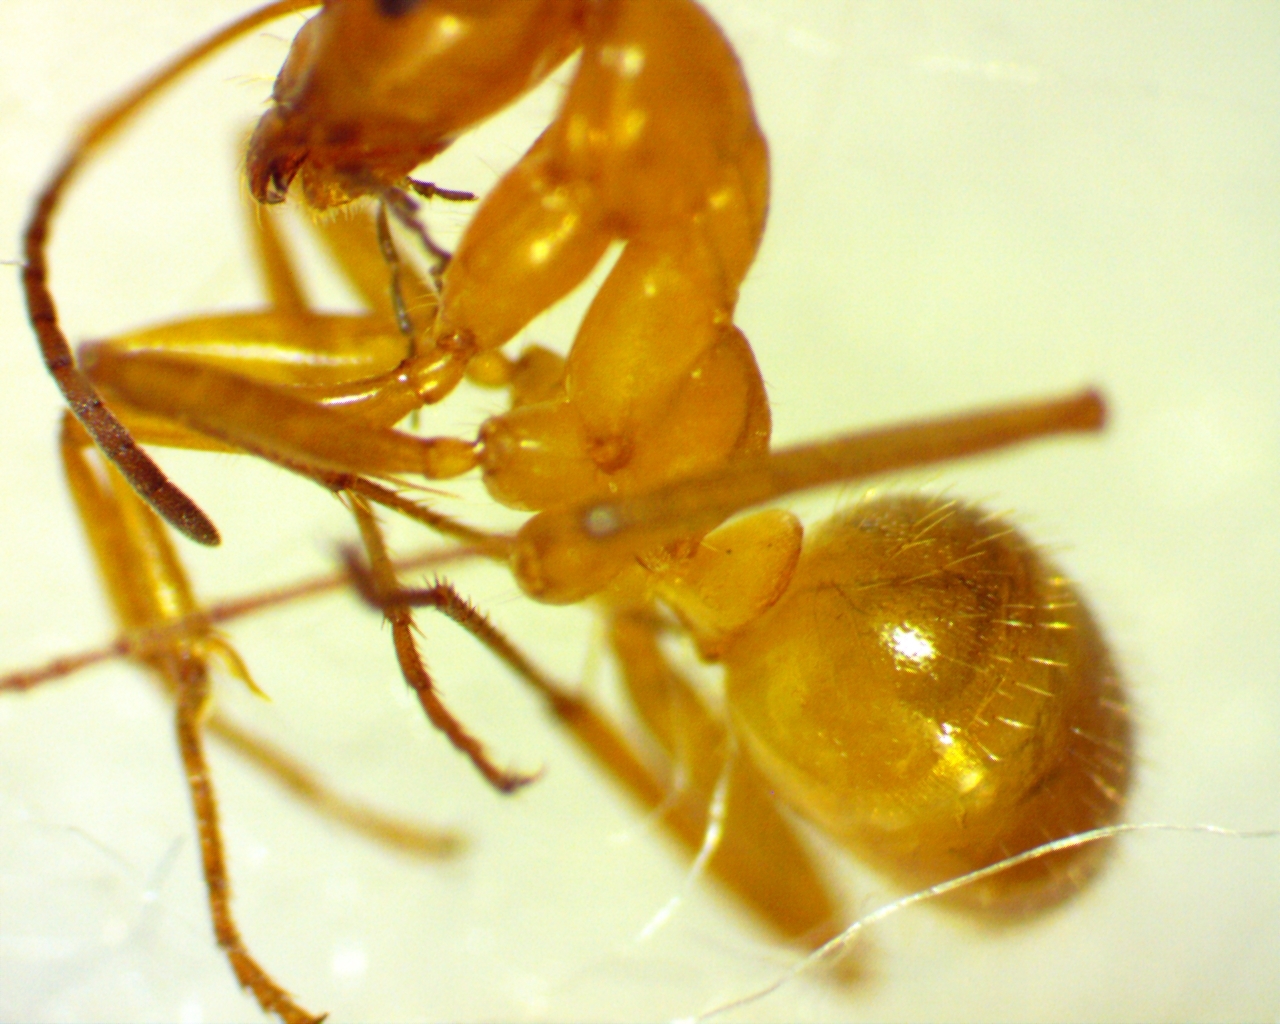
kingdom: Animalia
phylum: Arthropoda
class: Insecta
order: Hymenoptera
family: Formicidae
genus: Formica
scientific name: Formica pallidefulva
